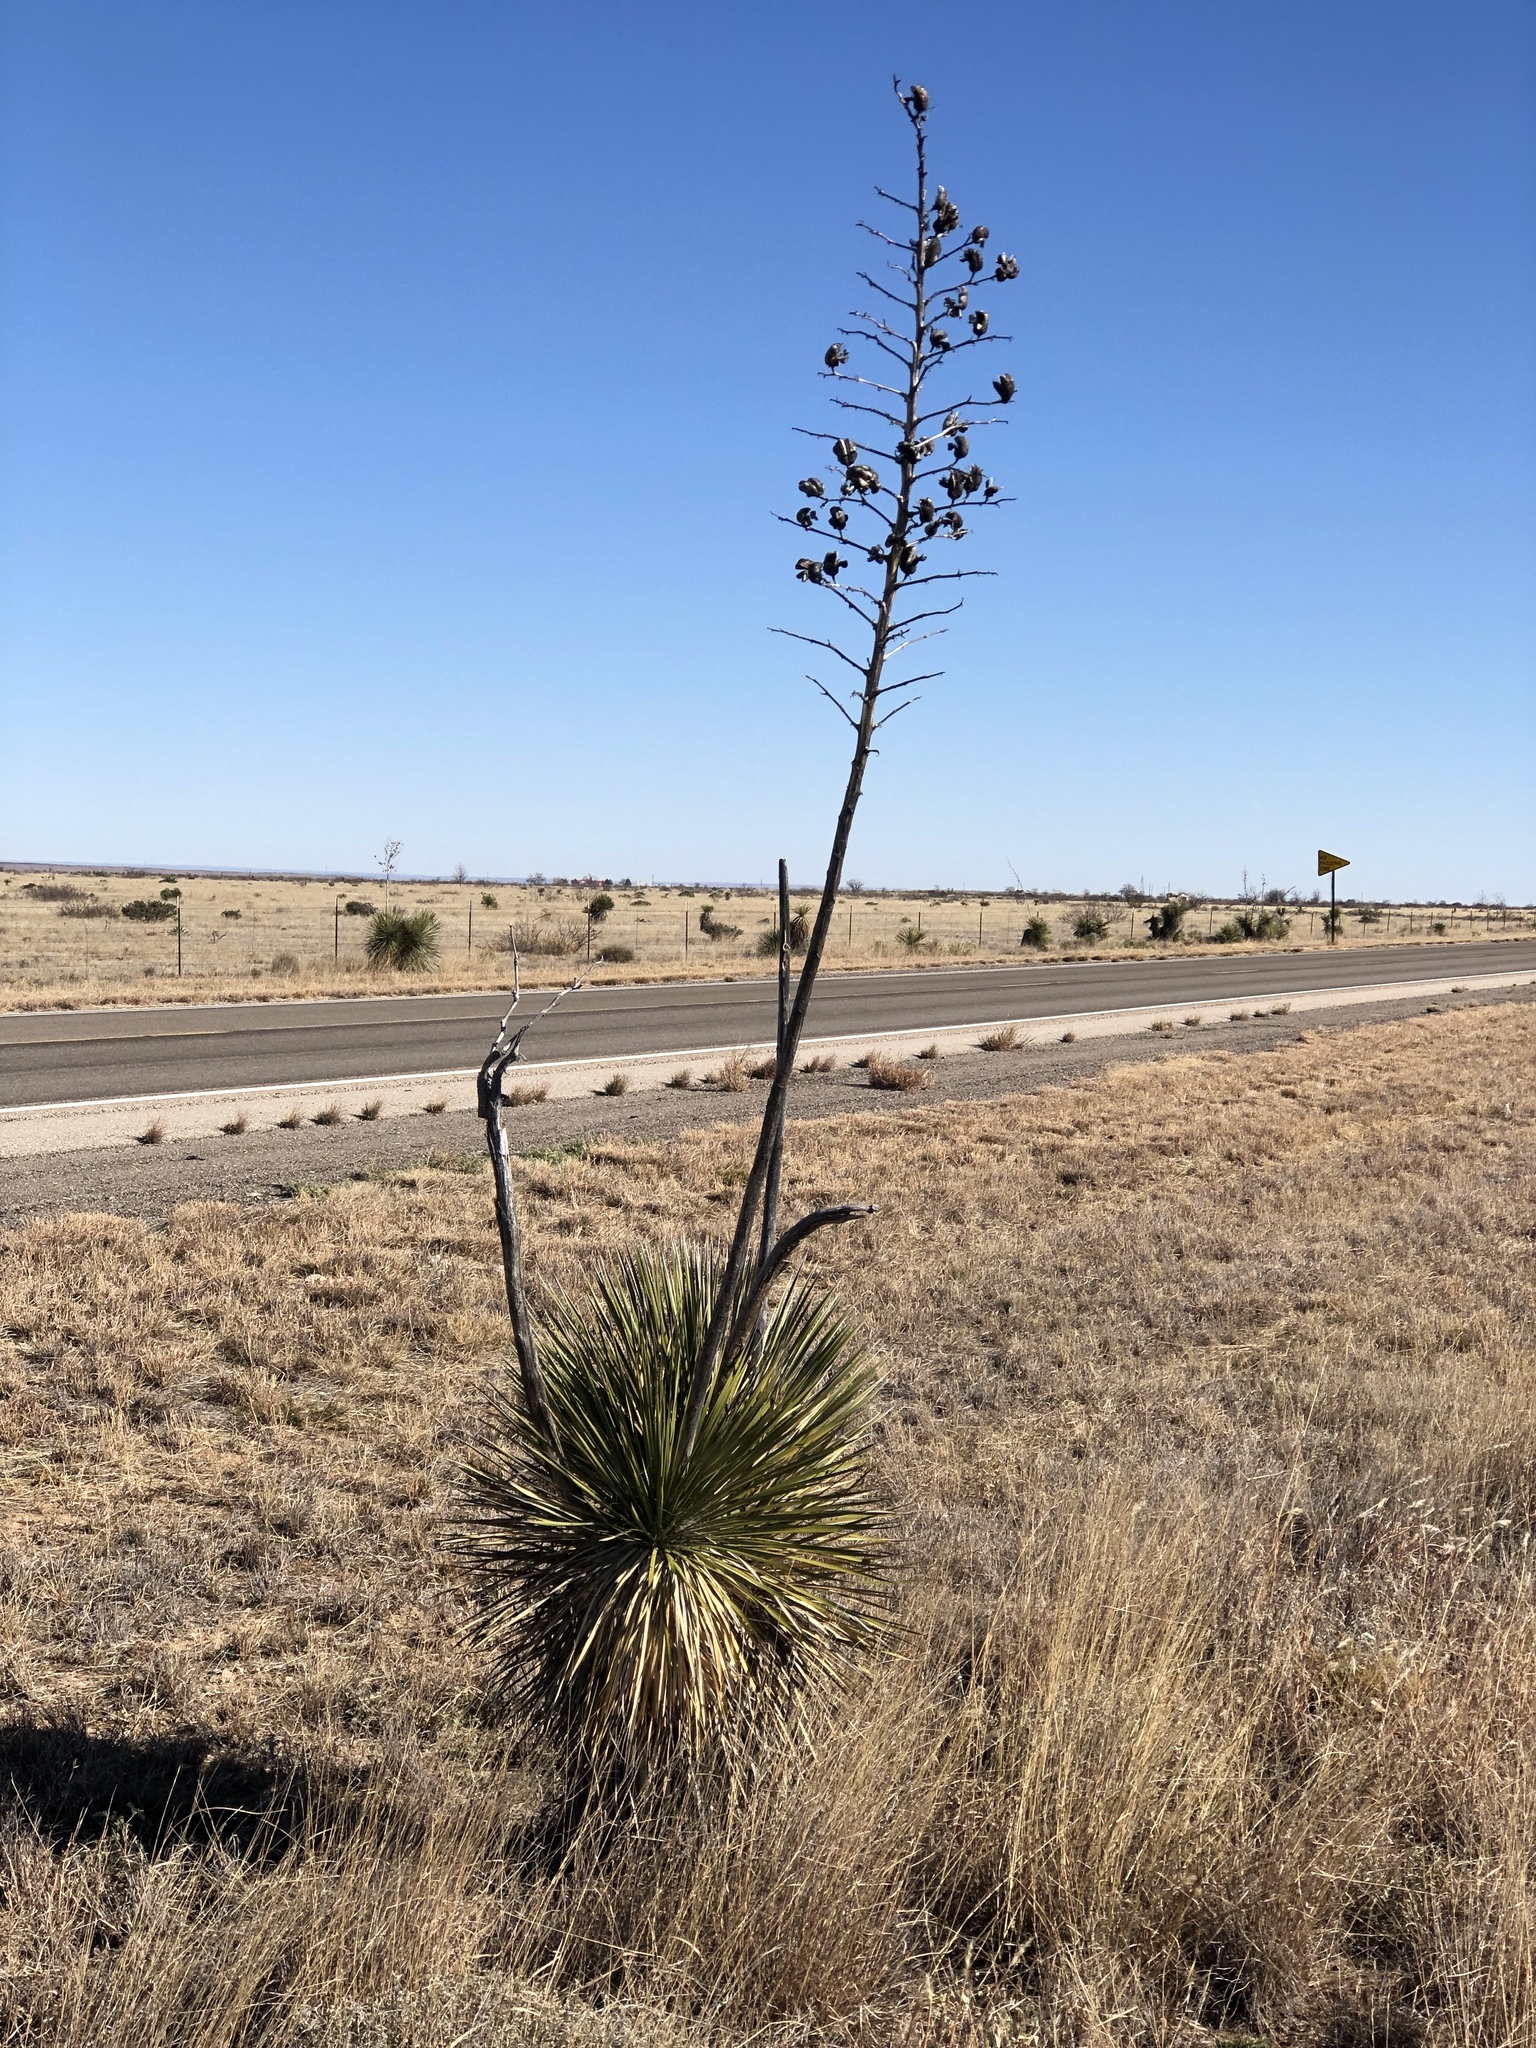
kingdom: Plantae
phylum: Tracheophyta
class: Liliopsida
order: Asparagales
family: Asparagaceae
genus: Yucca
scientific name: Yucca elata
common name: Palmella
